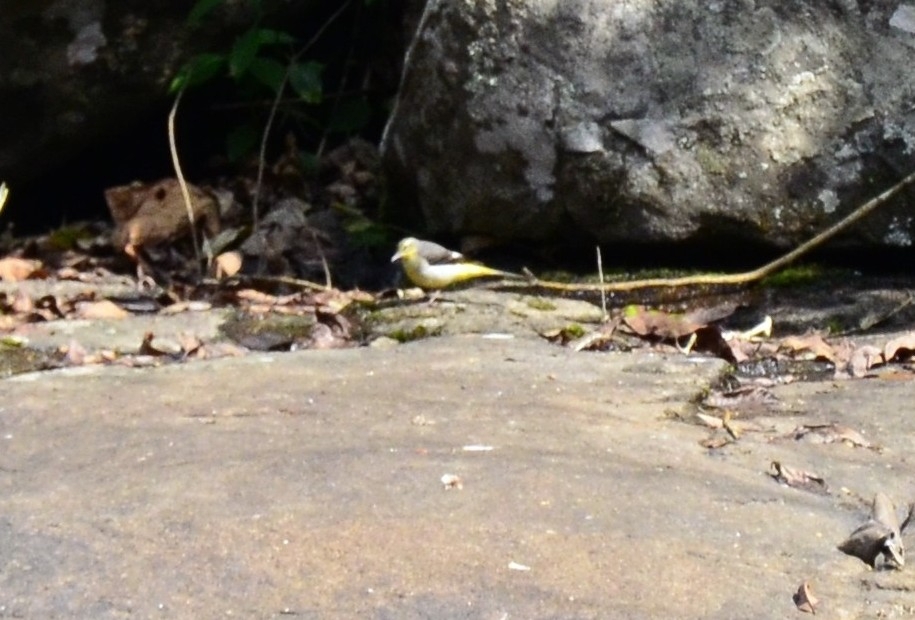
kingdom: Animalia
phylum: Chordata
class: Aves
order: Passeriformes
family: Motacillidae
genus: Motacilla
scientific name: Motacilla cinerea
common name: Grey wagtail
